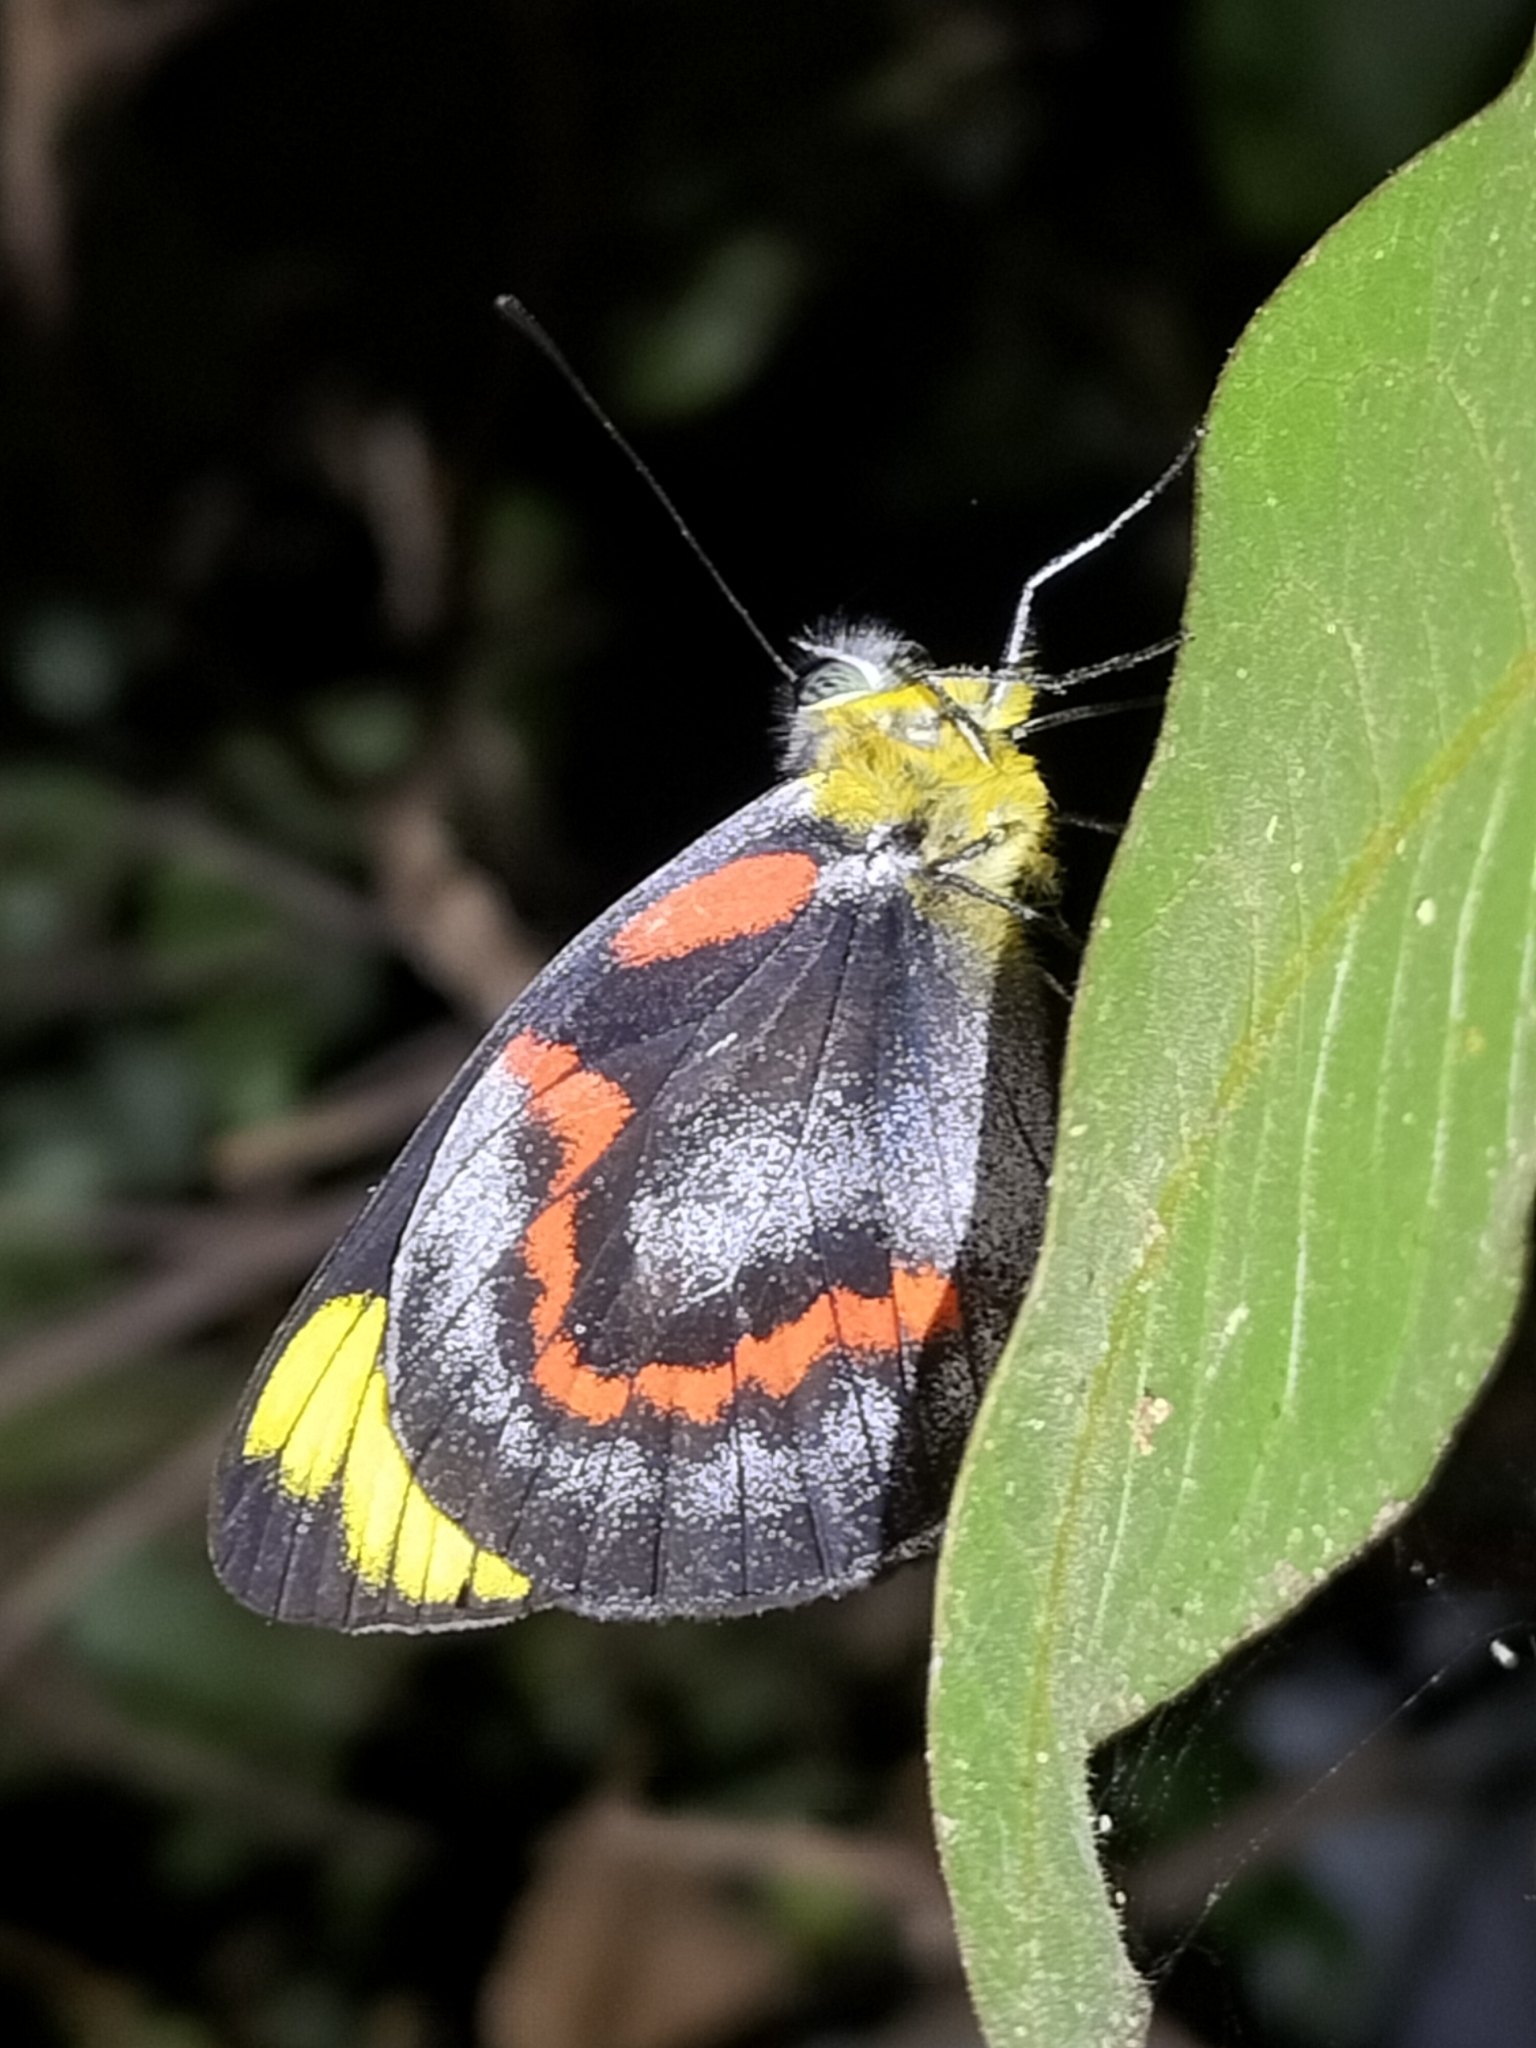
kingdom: Animalia
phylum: Arthropoda
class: Insecta
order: Lepidoptera
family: Pieridae
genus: Delias
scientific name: Delias nigrina
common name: Black jezebel
